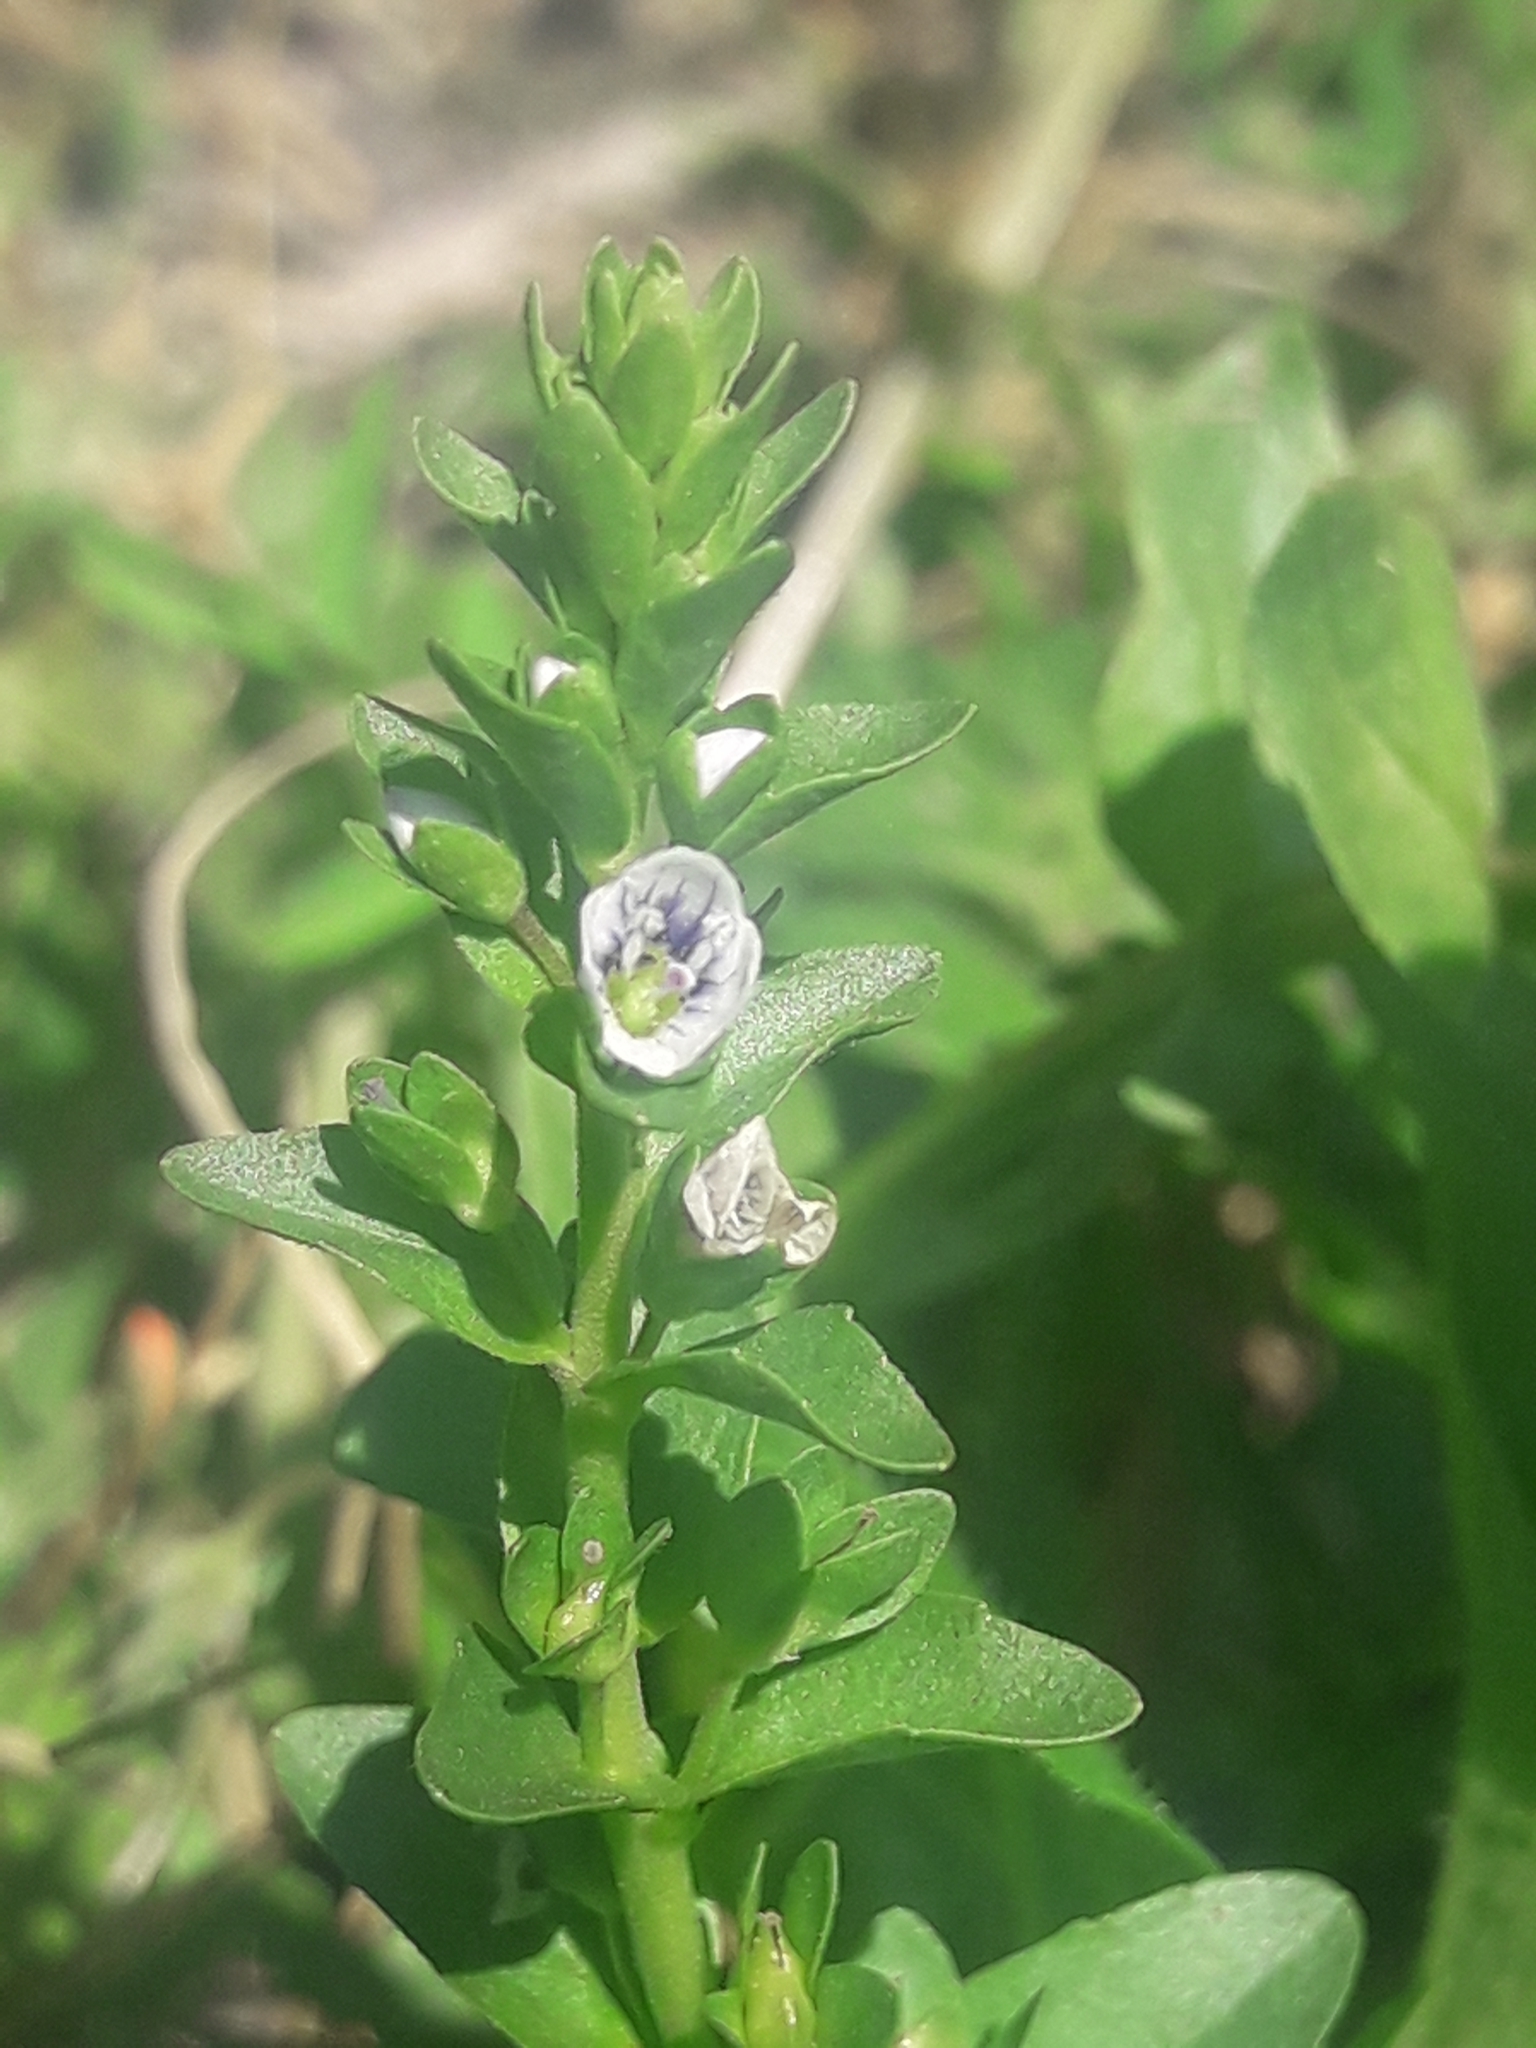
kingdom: Plantae
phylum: Tracheophyta
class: Magnoliopsida
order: Lamiales
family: Plantaginaceae
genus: Veronica
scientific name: Veronica serpyllifolia
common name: Thyme-leaved speedwell
